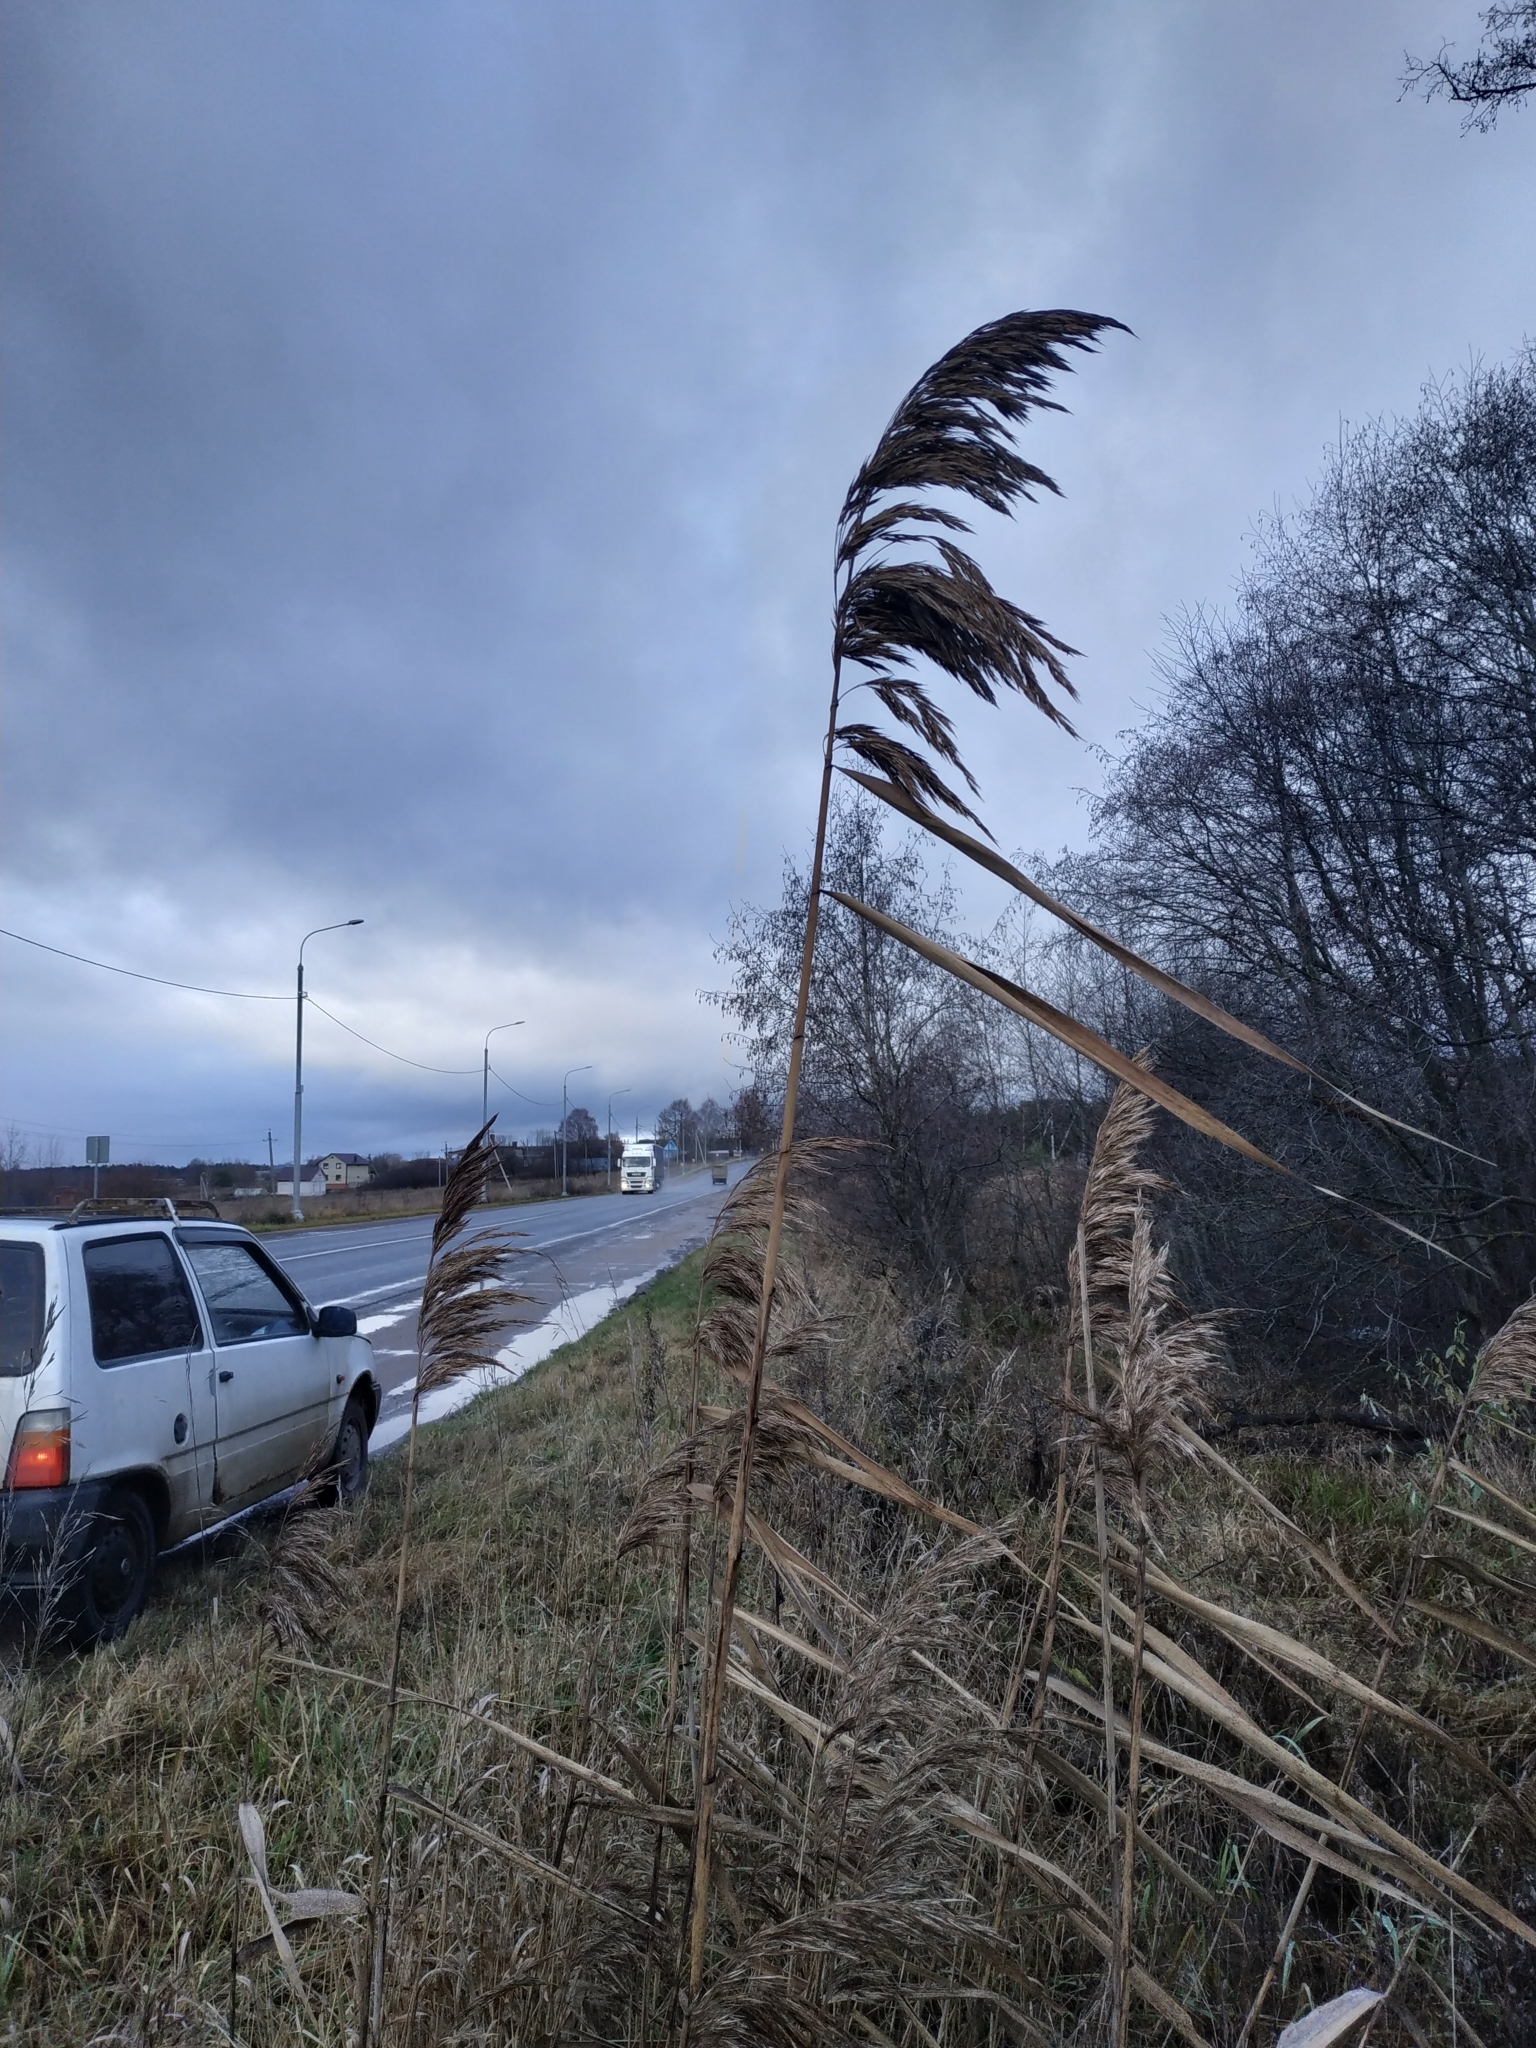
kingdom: Plantae
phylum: Tracheophyta
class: Liliopsida
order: Poales
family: Poaceae
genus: Phragmites
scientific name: Phragmites australis
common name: Common reed
